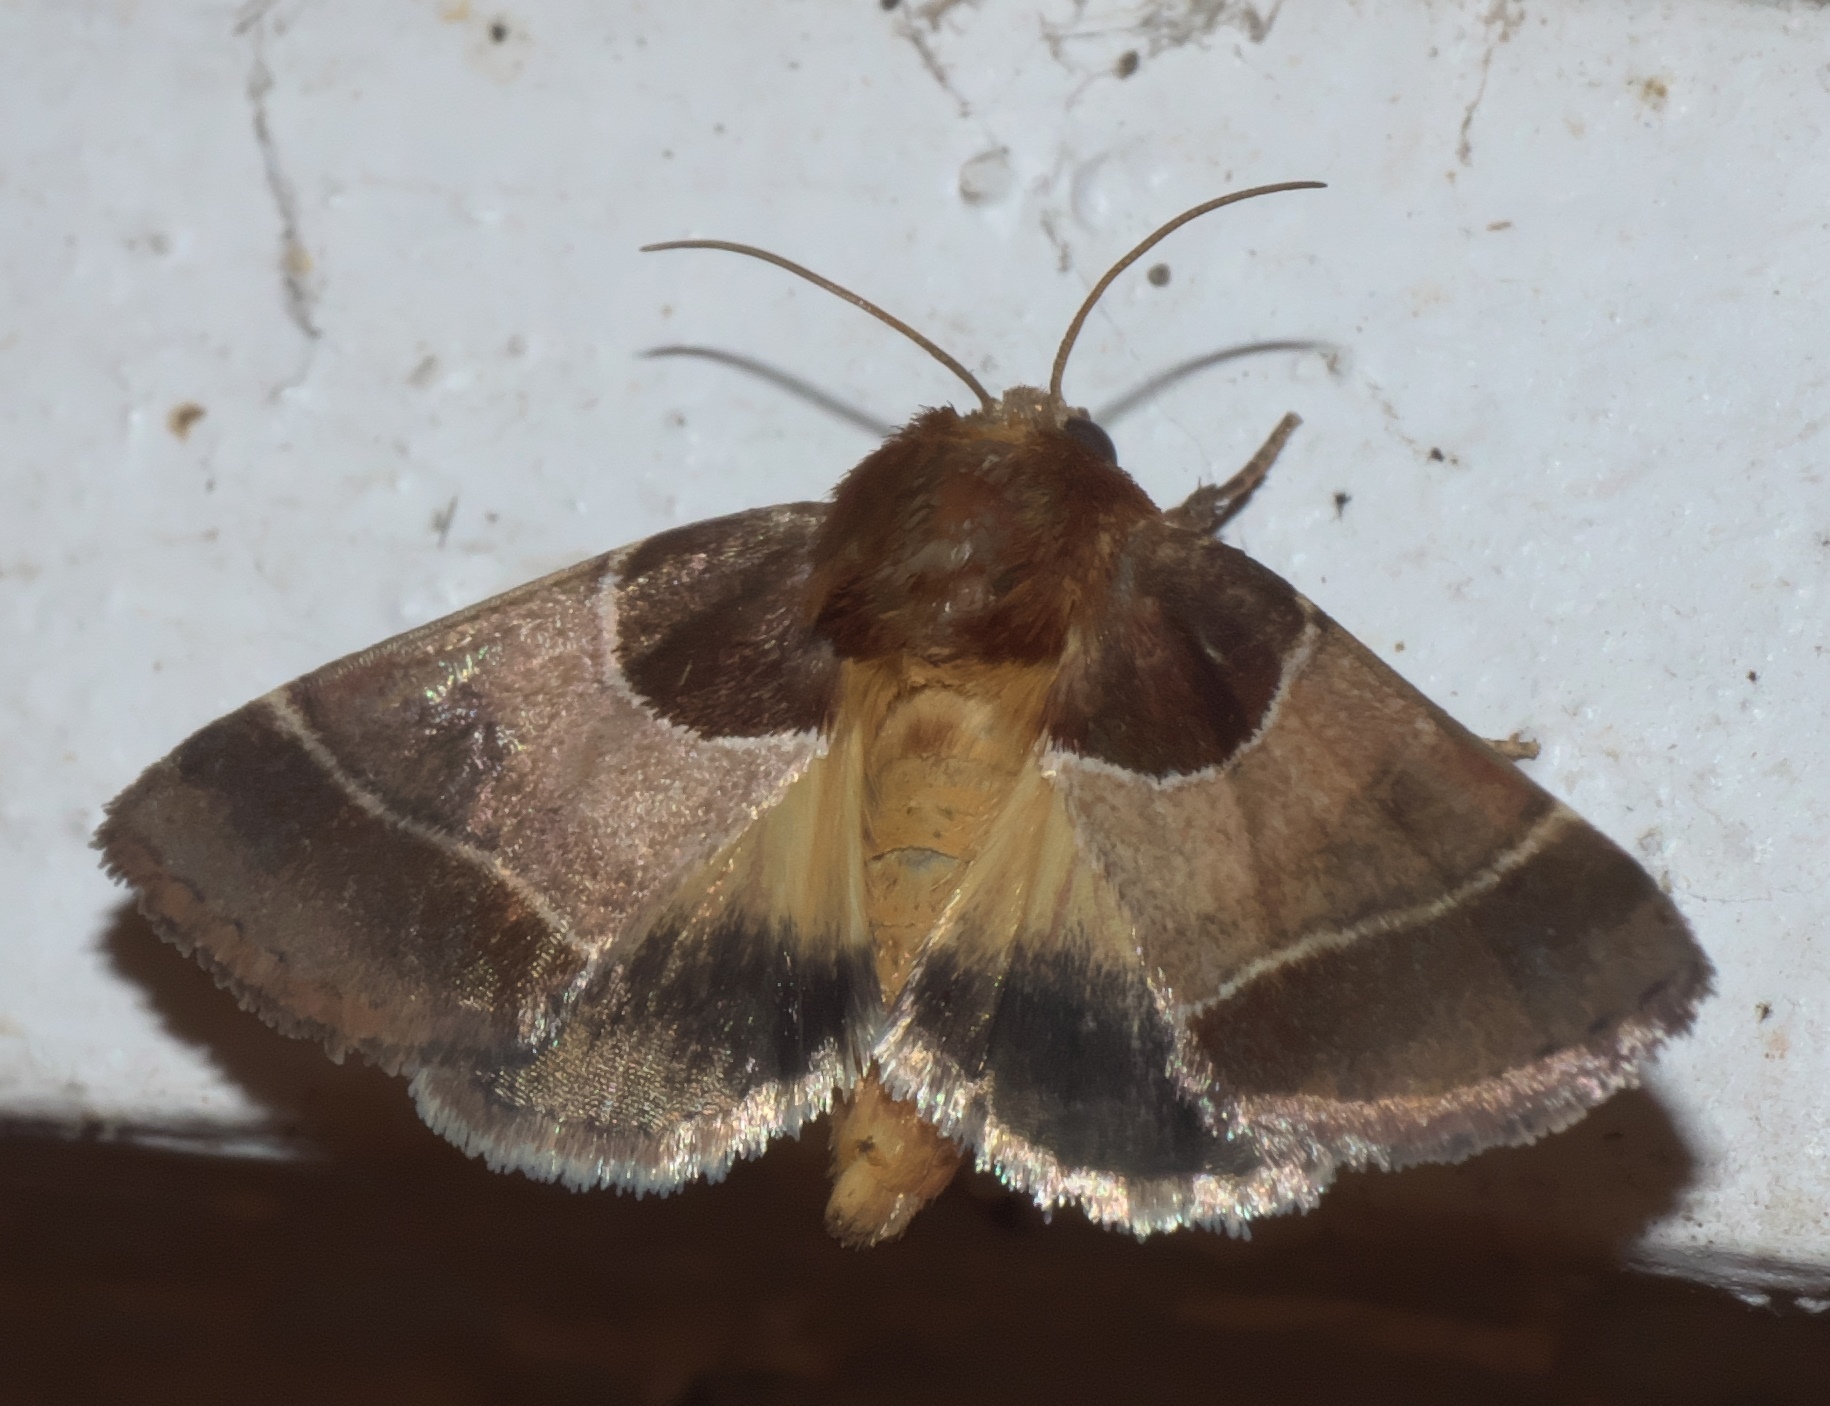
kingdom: Animalia
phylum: Arthropoda
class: Insecta
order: Lepidoptera
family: Noctuidae
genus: Schinia
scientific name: Schinia arcigera
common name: Arcigera flower moth
